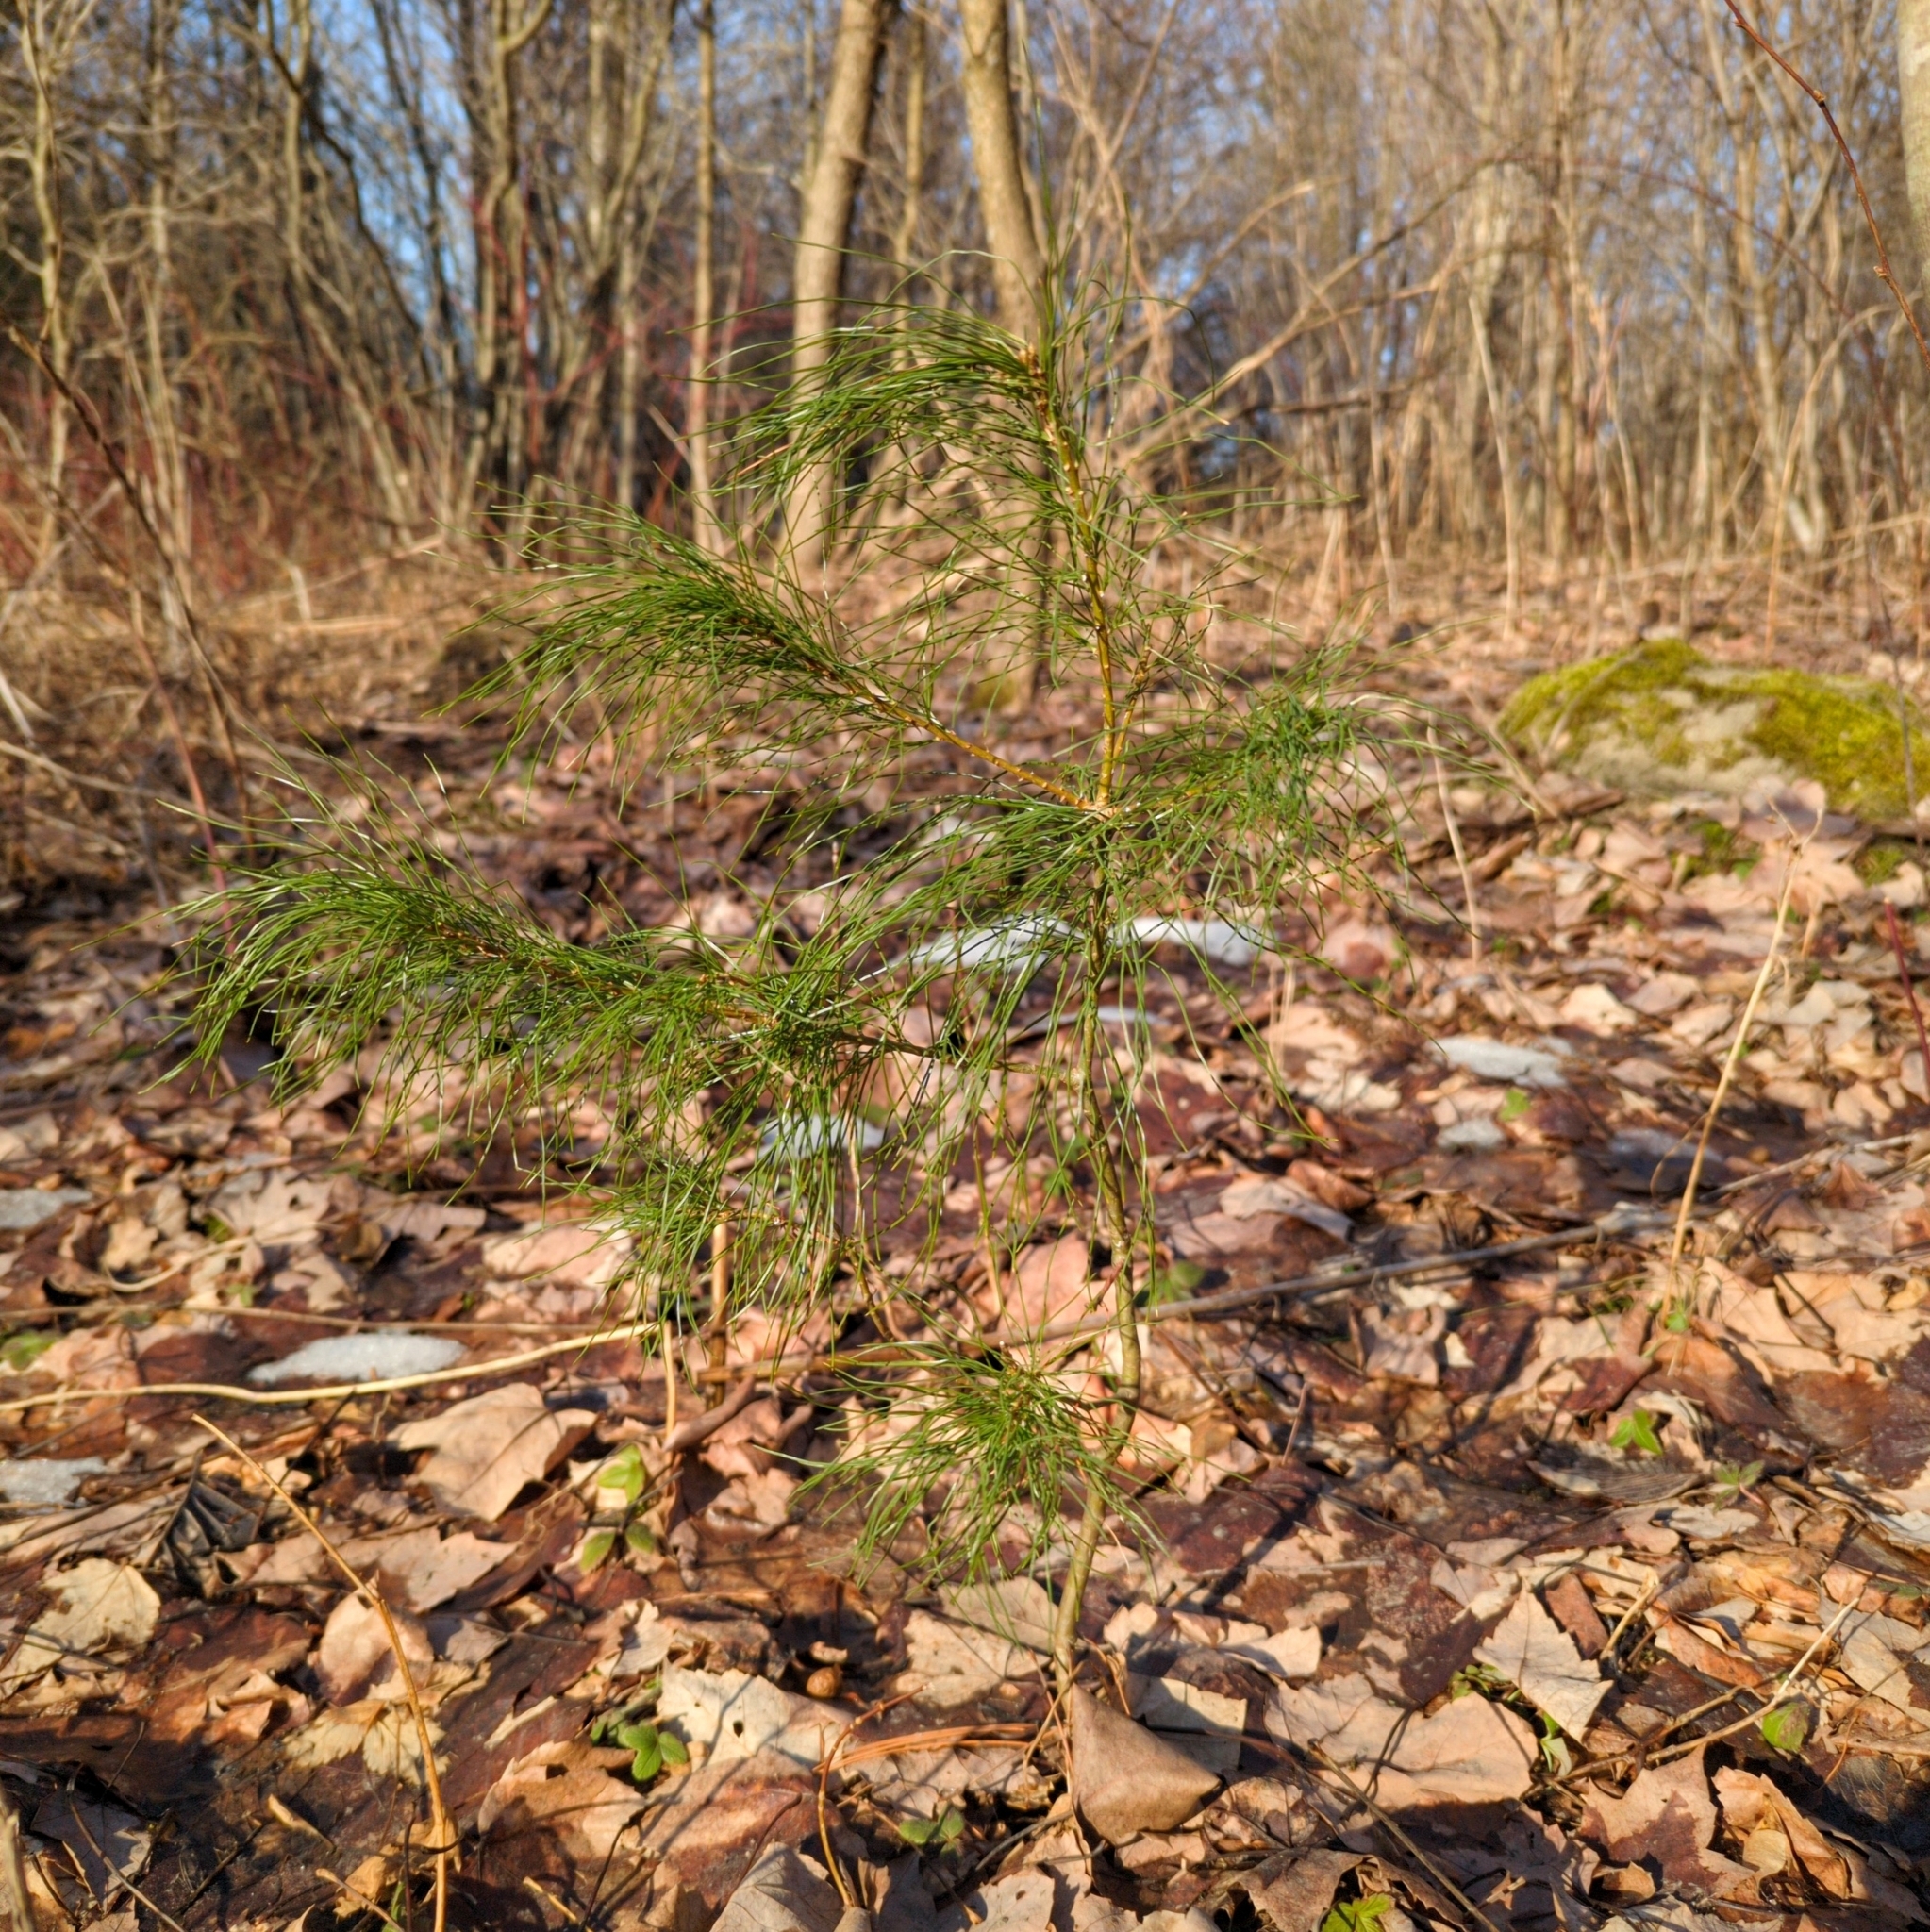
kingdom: Plantae
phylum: Tracheophyta
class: Pinopsida
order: Pinales
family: Pinaceae
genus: Pinus
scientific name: Pinus strobus
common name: Weymouth pine
